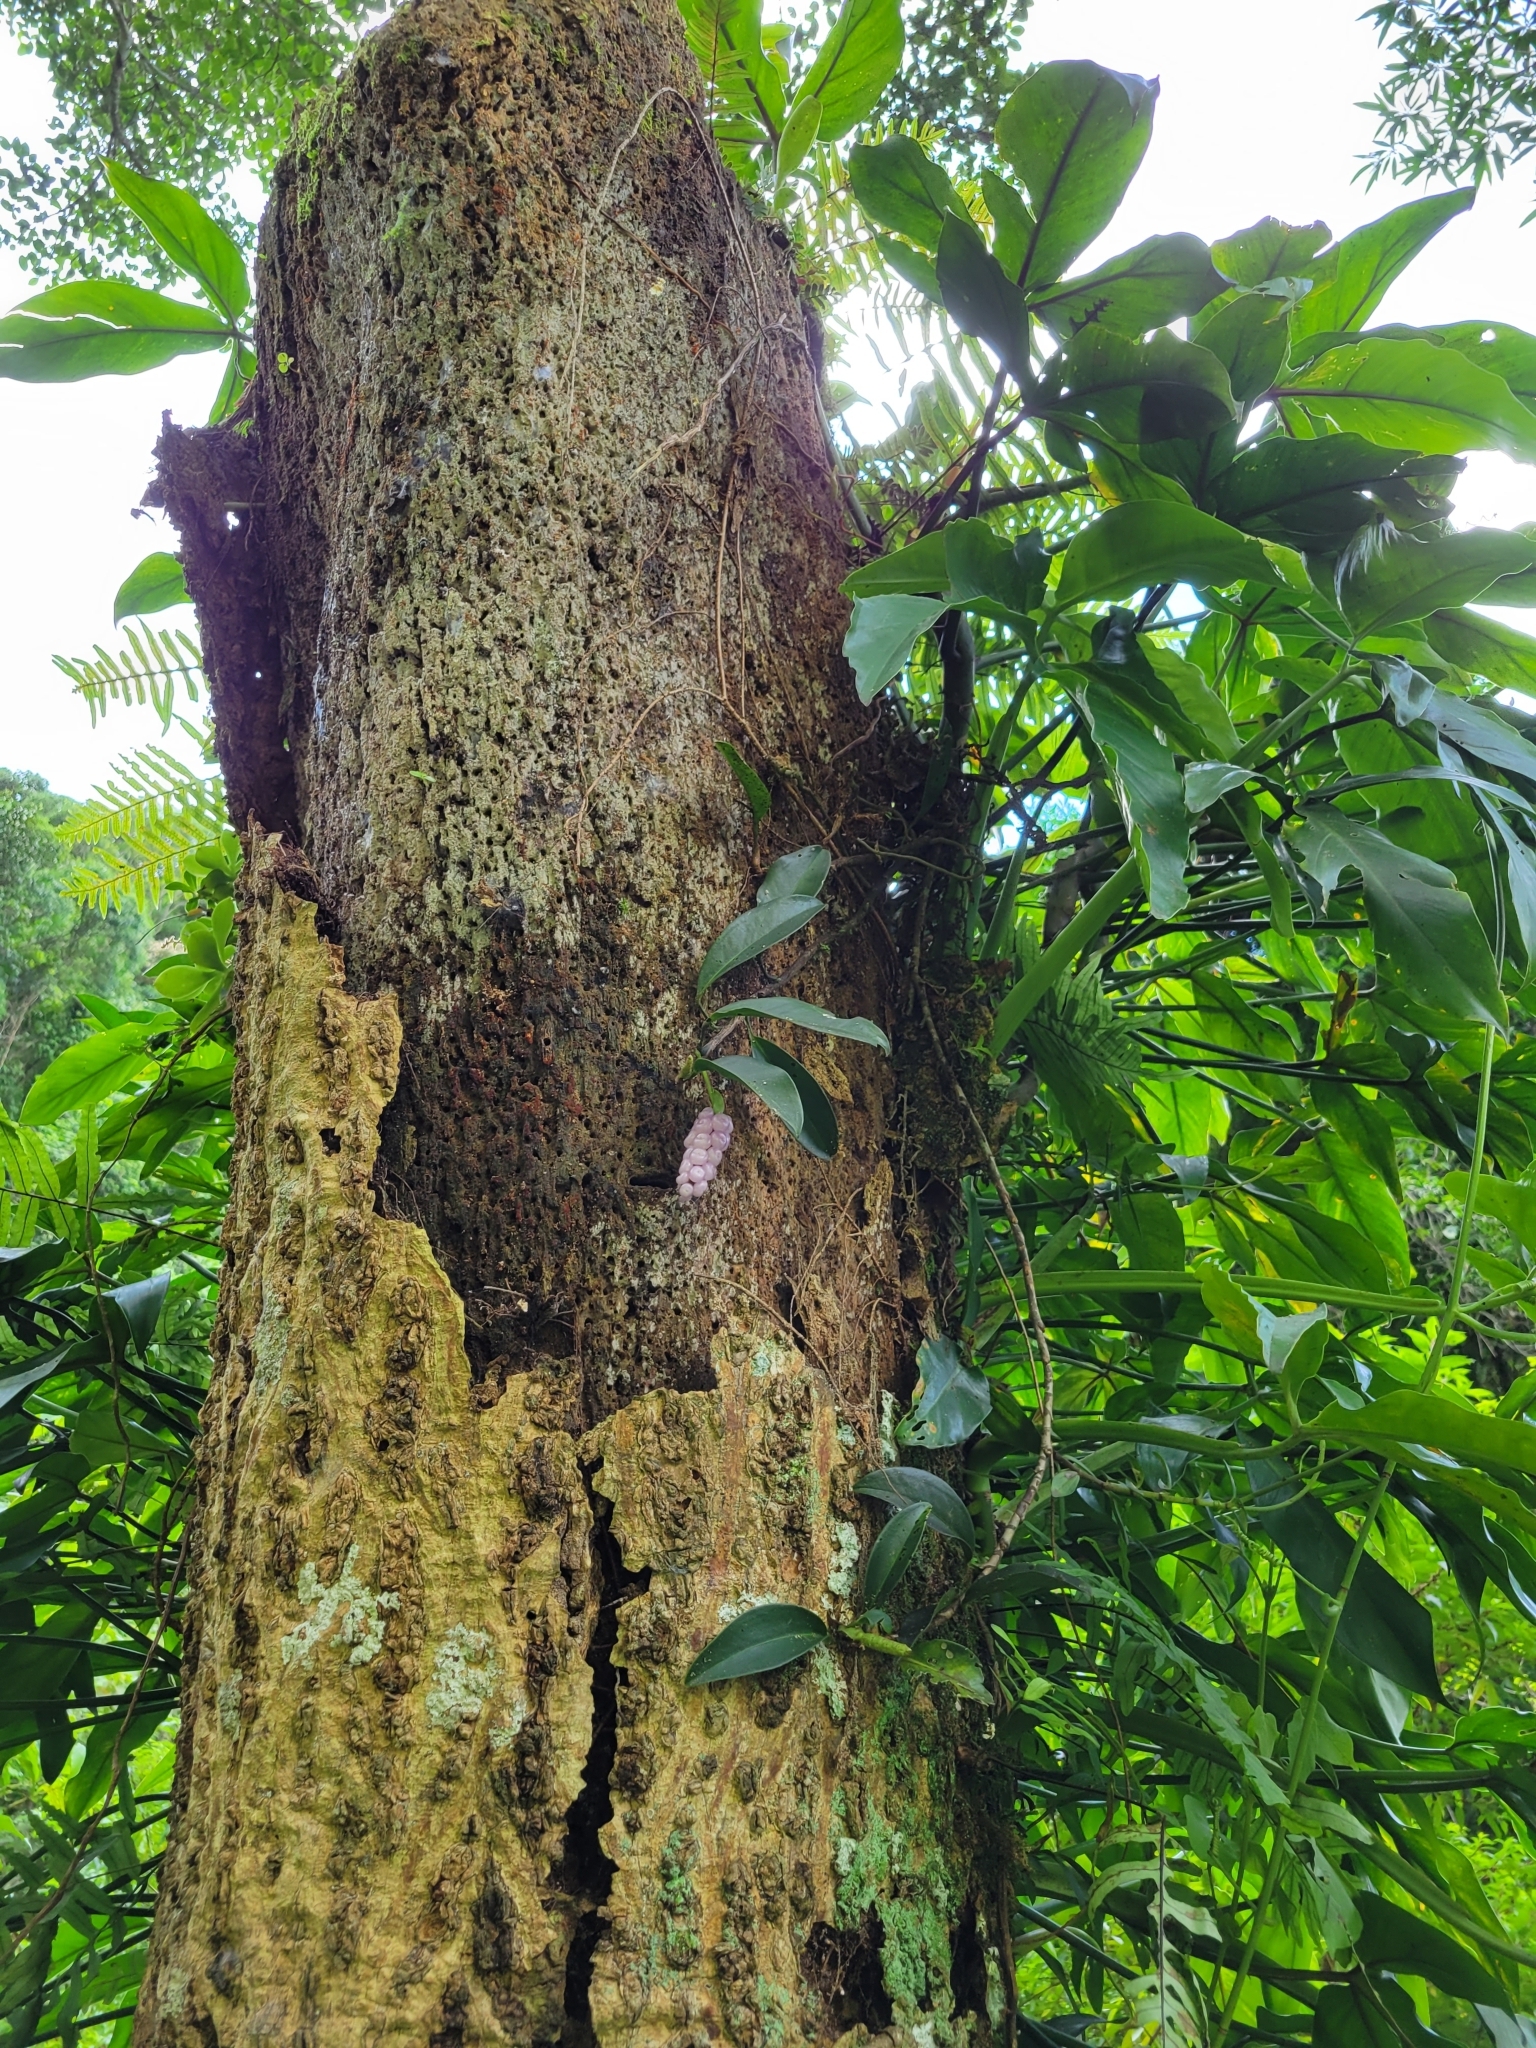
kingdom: Plantae
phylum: Tracheophyta
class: Liliopsida
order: Alismatales
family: Araceae
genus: Anthurium
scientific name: Anthurium scandens
